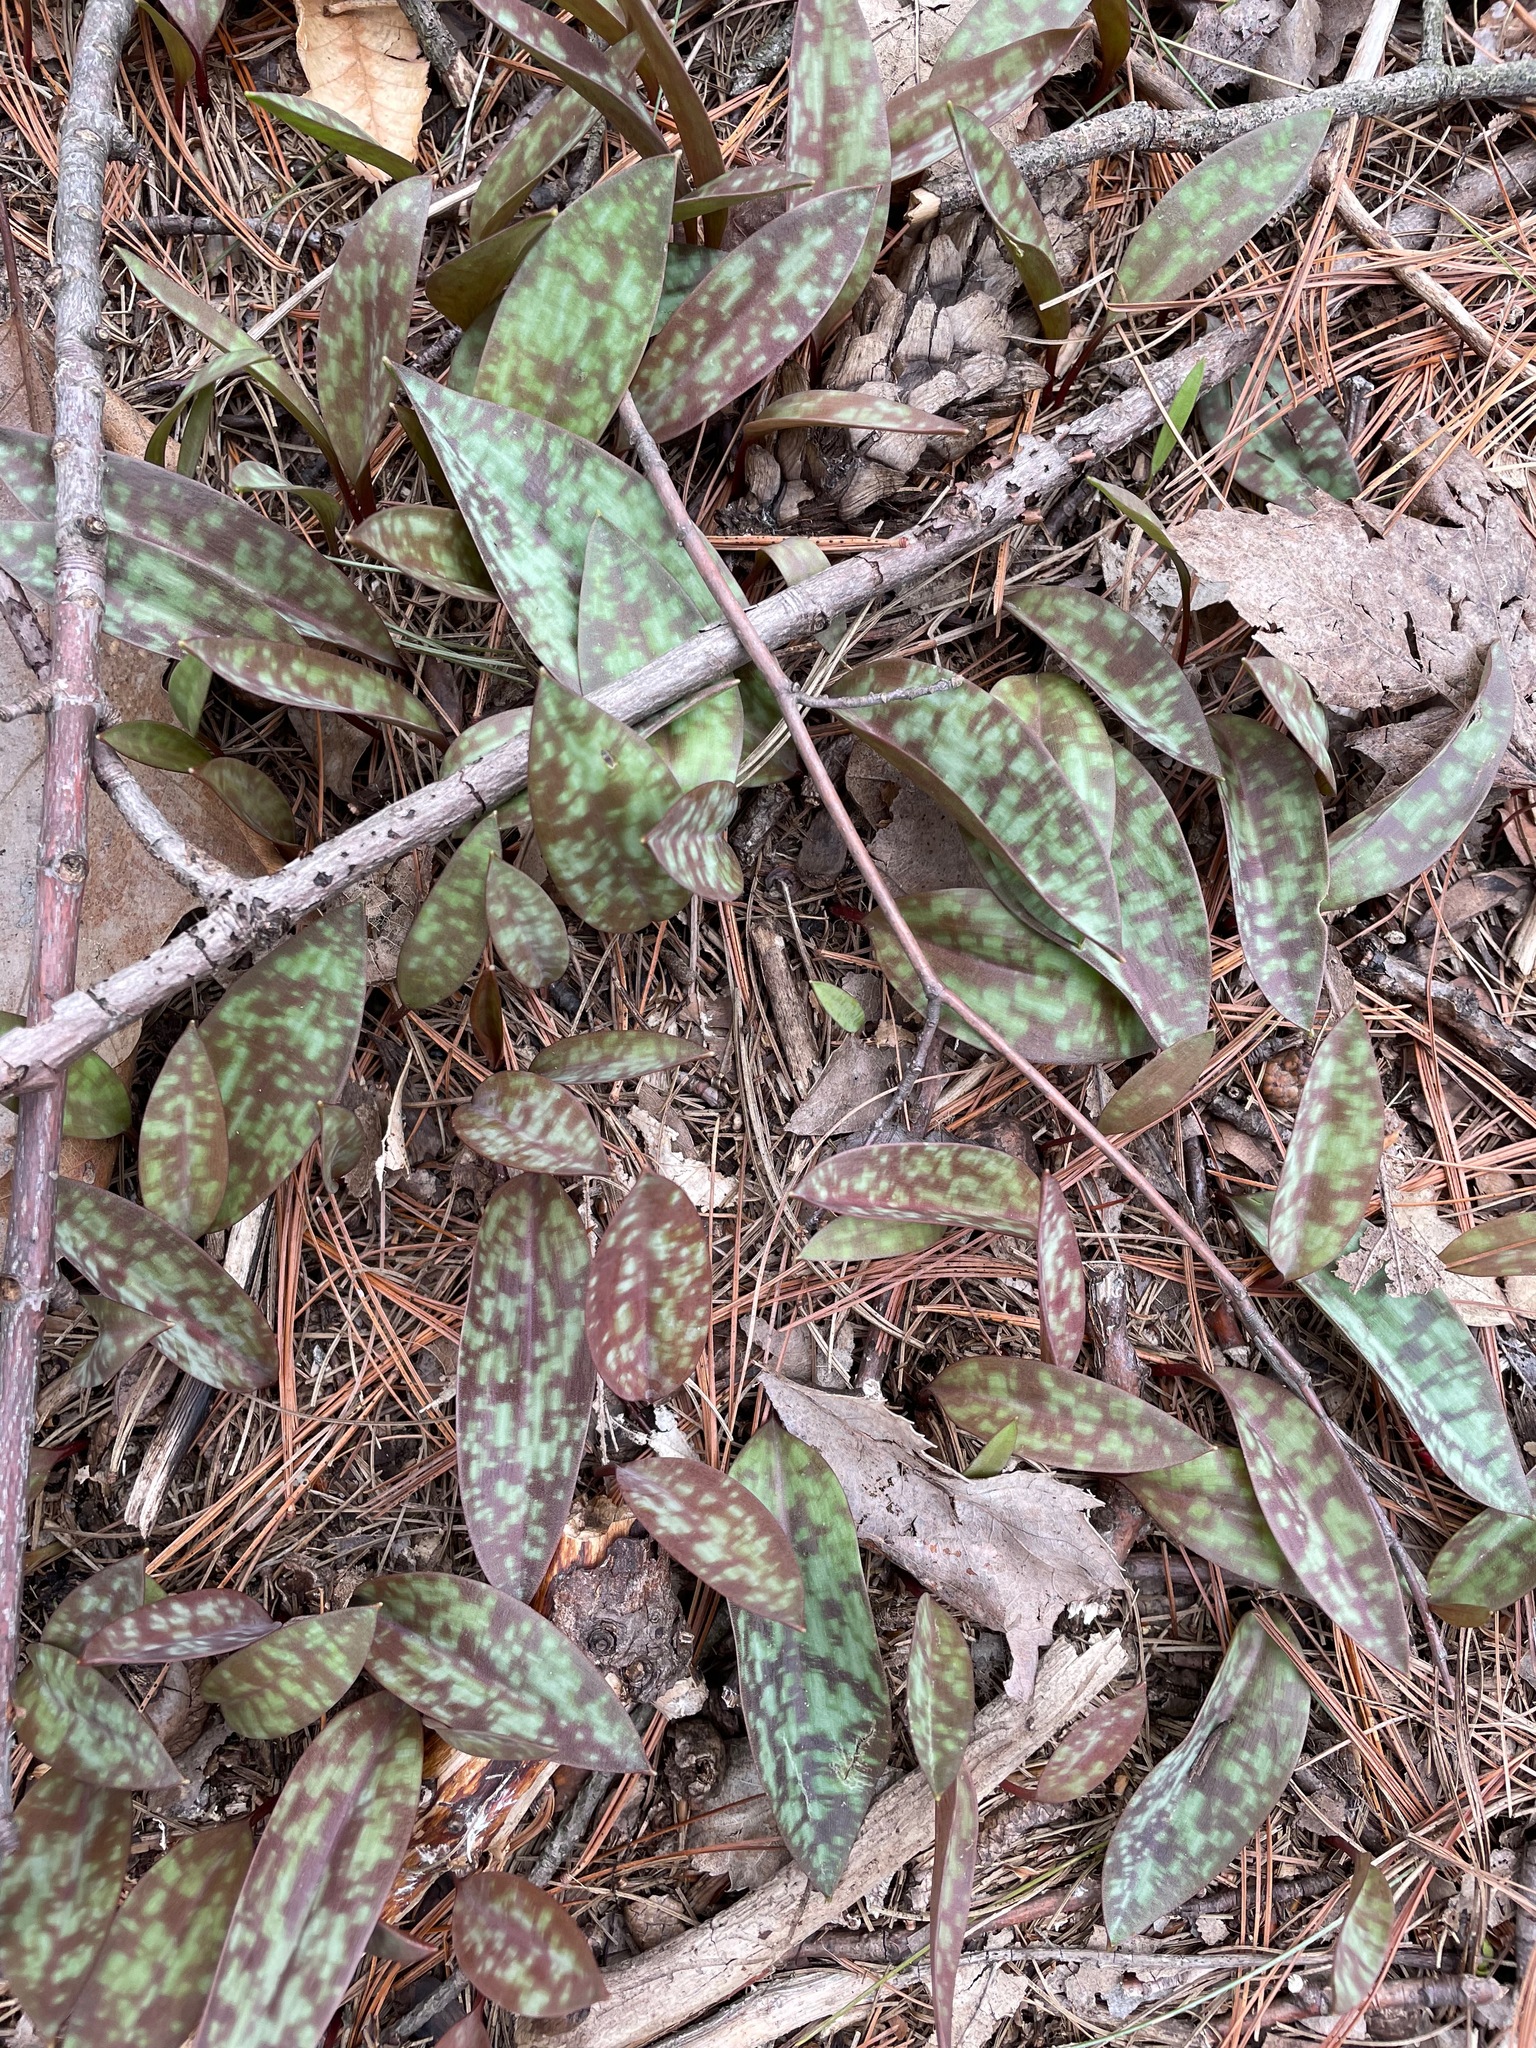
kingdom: Plantae
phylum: Tracheophyta
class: Liliopsida
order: Liliales
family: Liliaceae
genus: Erythronium
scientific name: Erythronium americanum
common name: Yellow adder's-tongue
